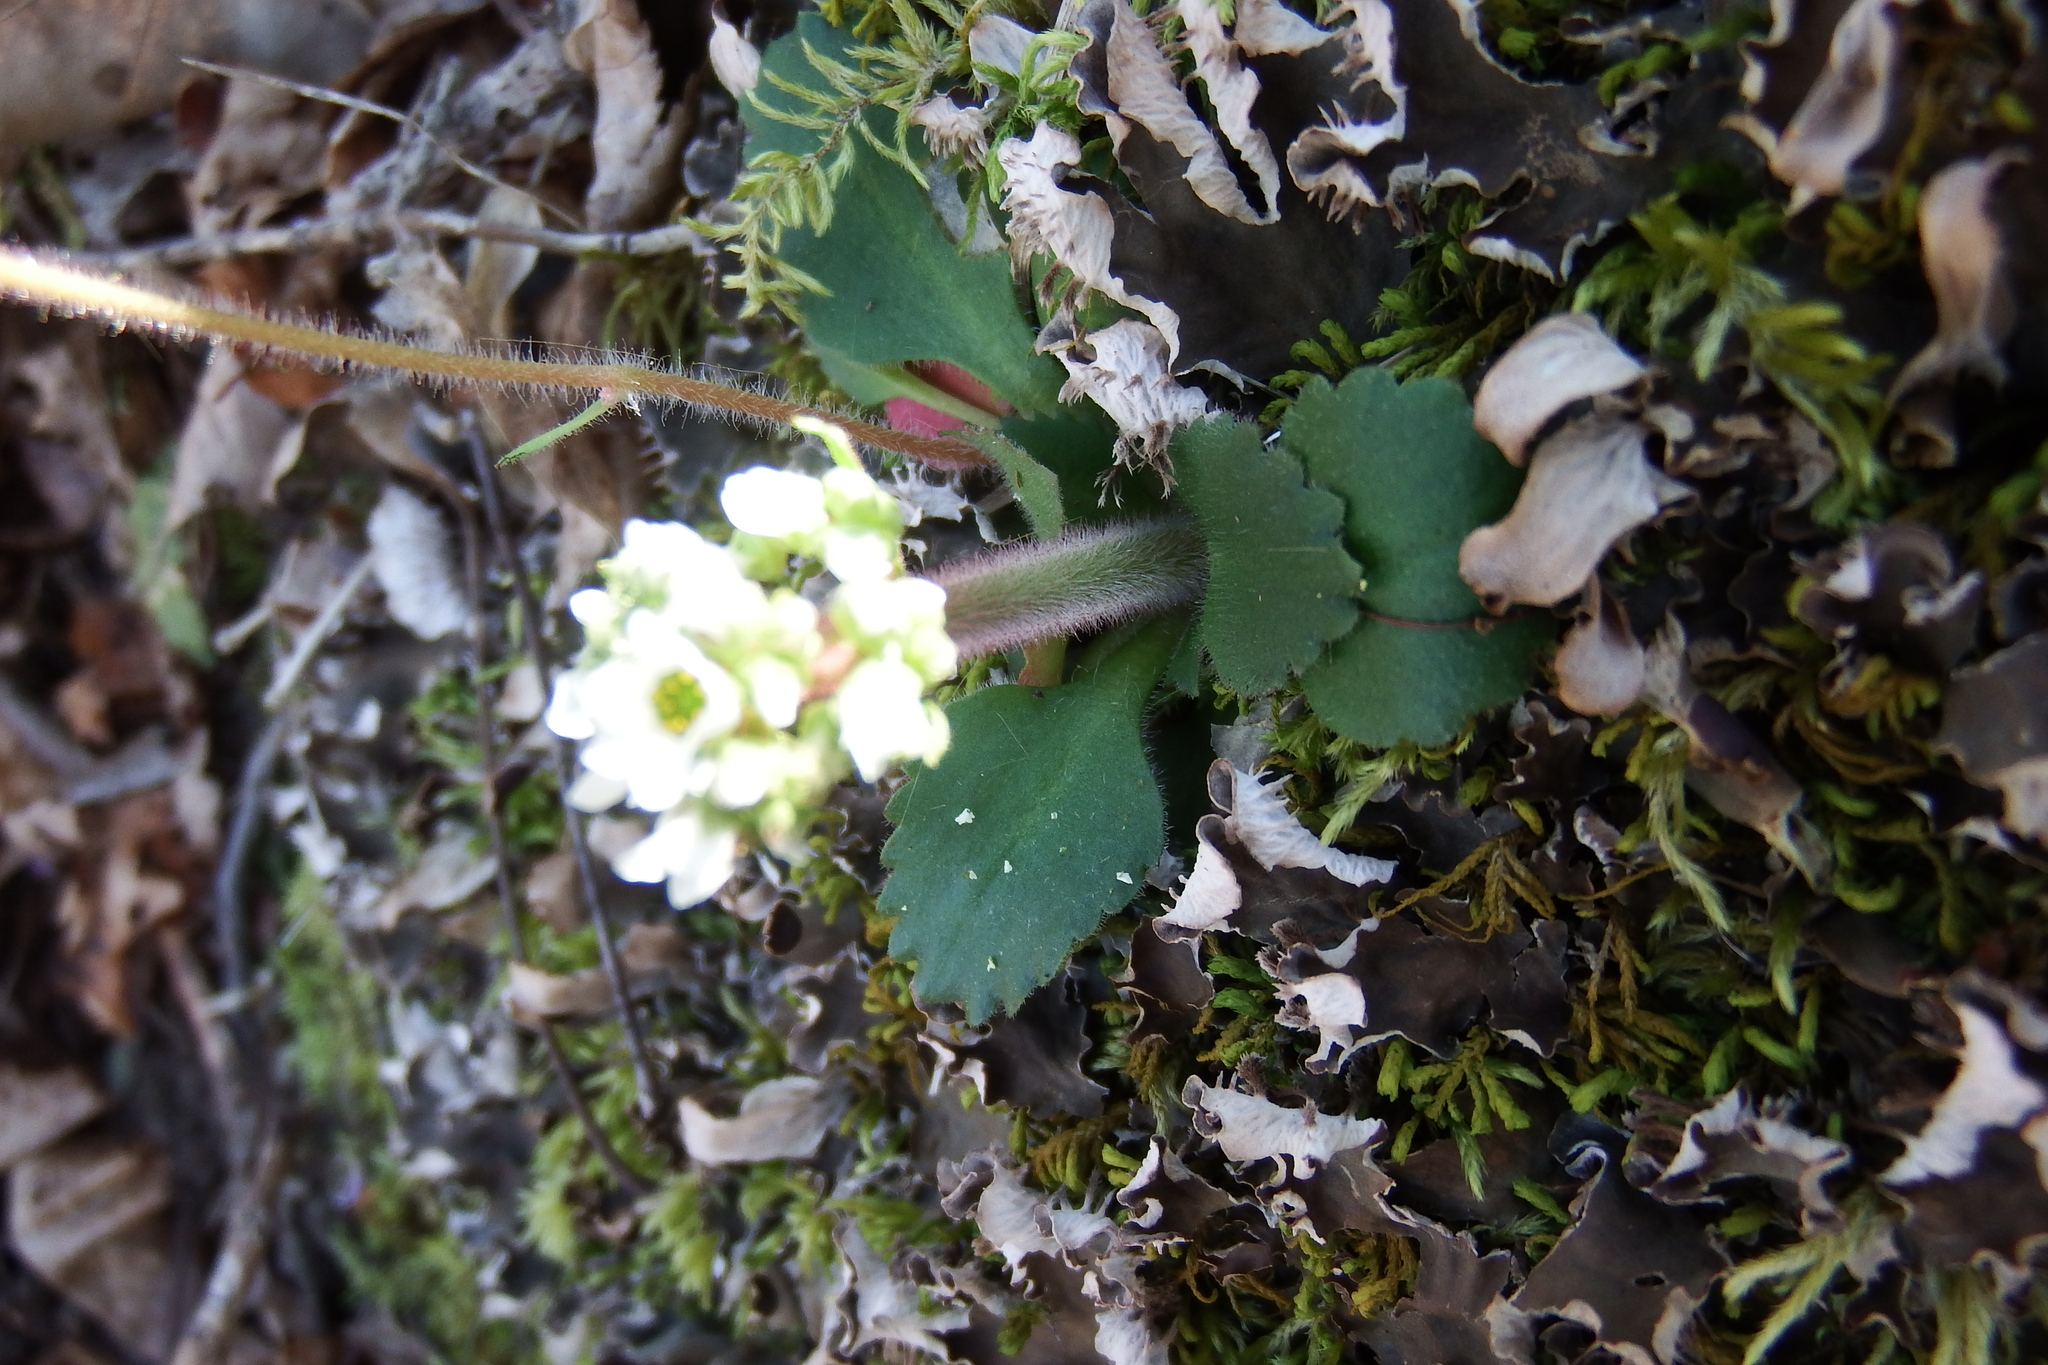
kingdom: Plantae
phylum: Tracheophyta
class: Magnoliopsida
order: Saxifragales
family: Saxifragaceae
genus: Micranthes
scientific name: Micranthes virginiensis
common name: Early saxifrage
